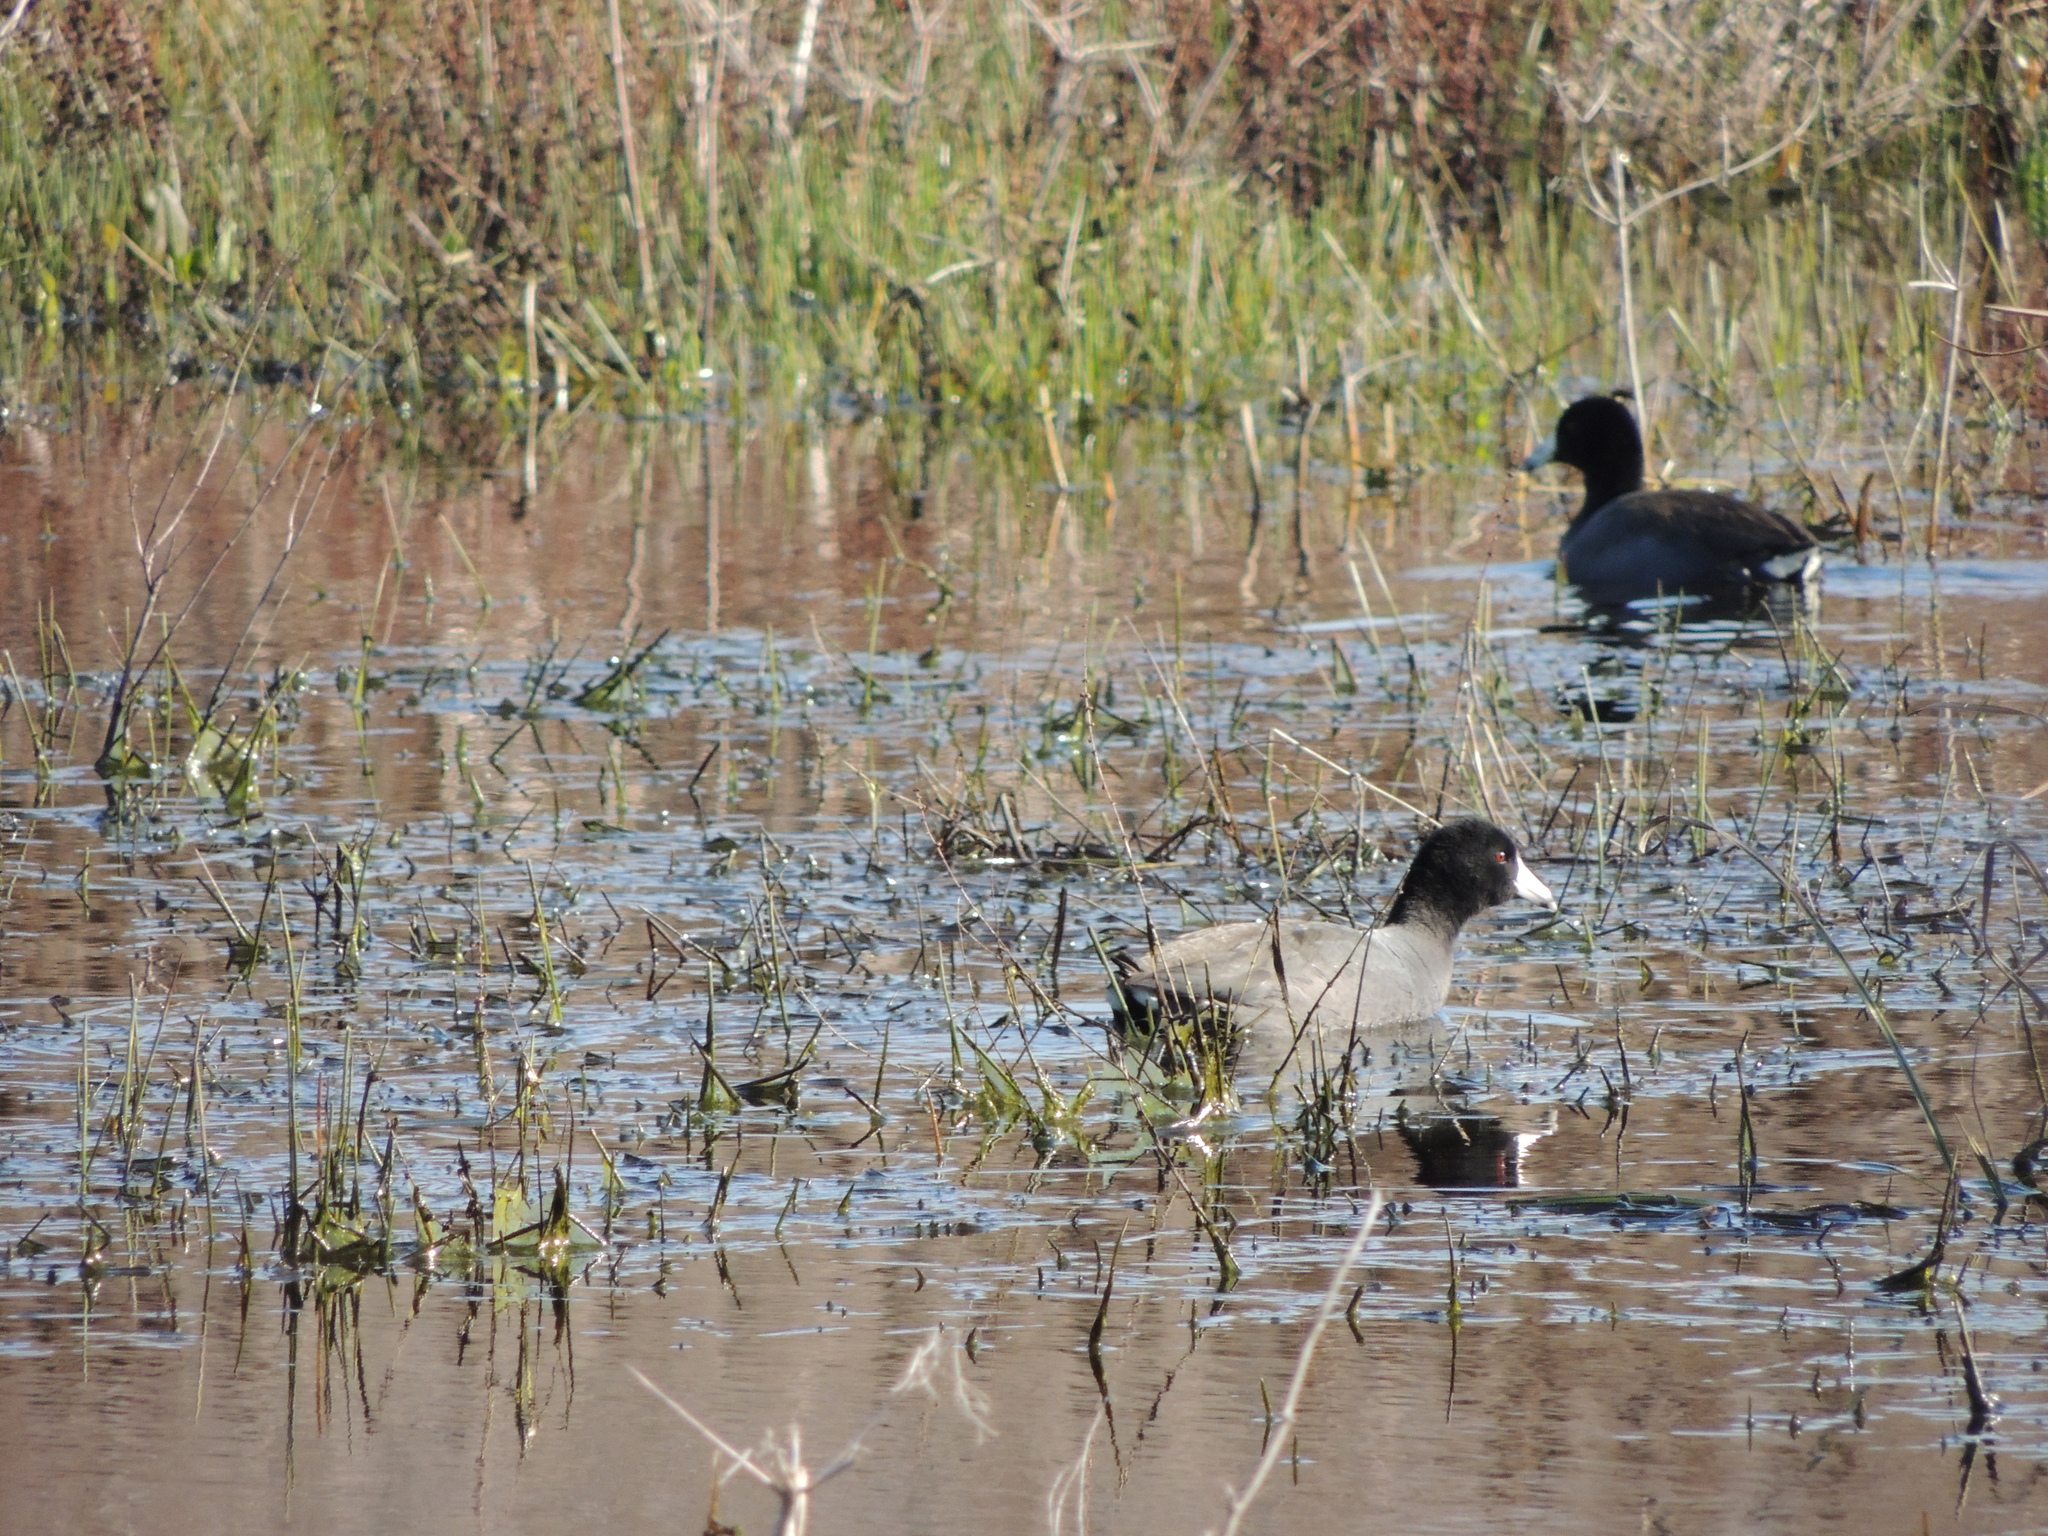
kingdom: Animalia
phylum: Chordata
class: Aves
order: Gruiformes
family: Rallidae
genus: Fulica
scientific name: Fulica americana
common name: American coot
